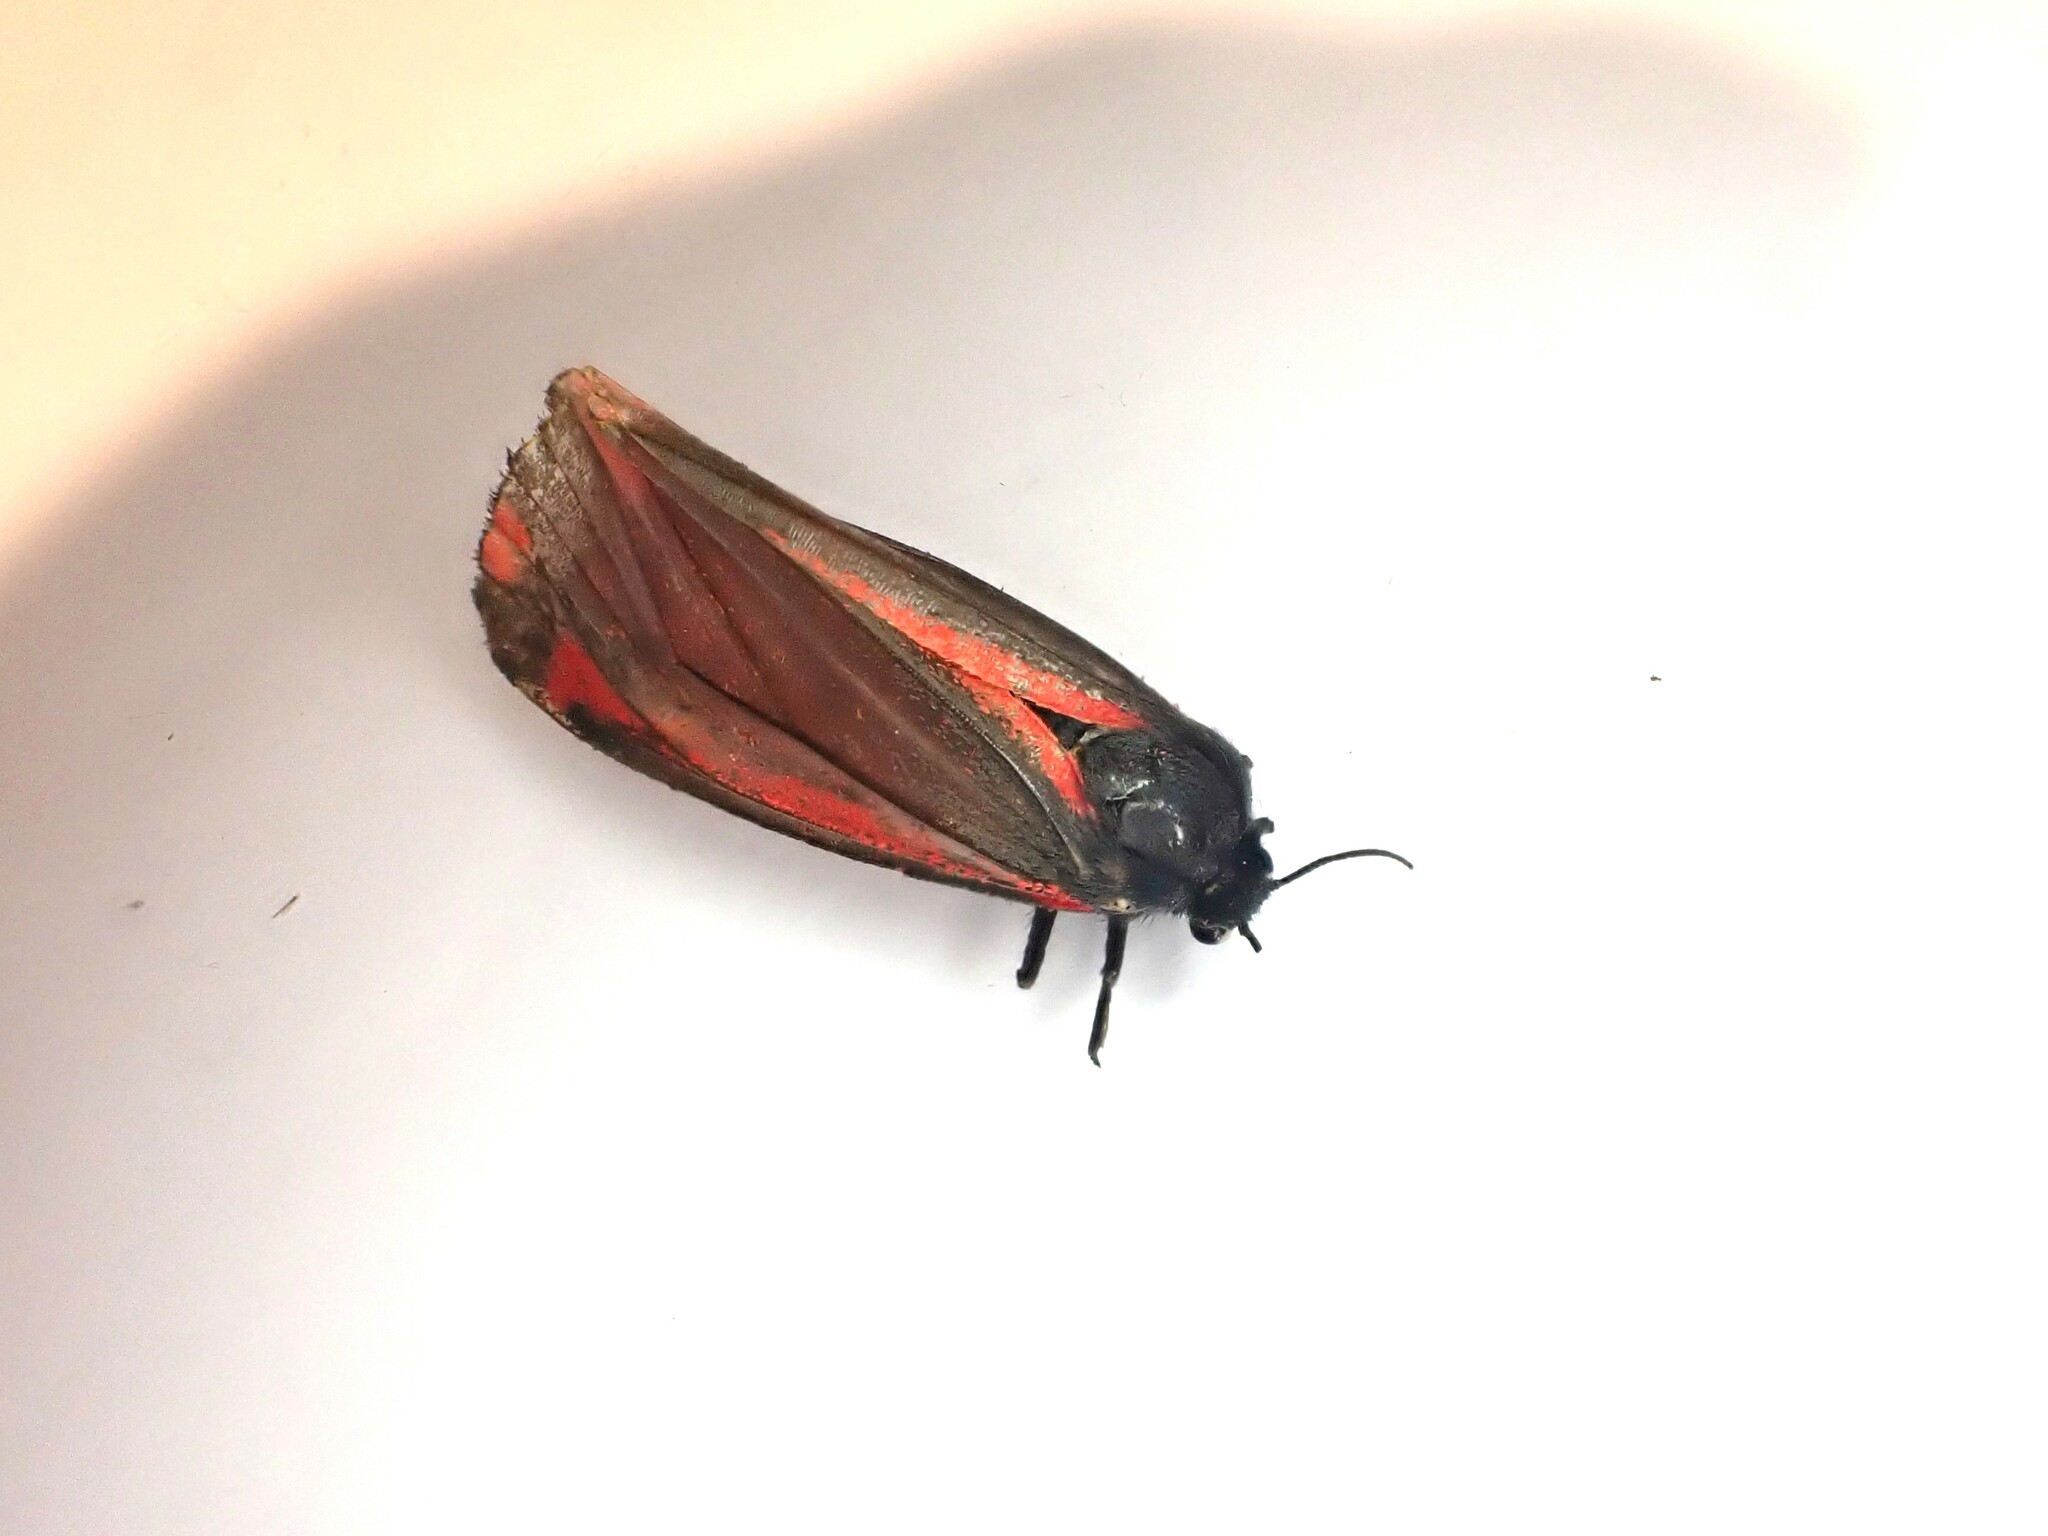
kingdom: Animalia
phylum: Arthropoda
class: Insecta
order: Lepidoptera
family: Erebidae
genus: Tyria
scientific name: Tyria jacobaeae
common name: Cinnabar
